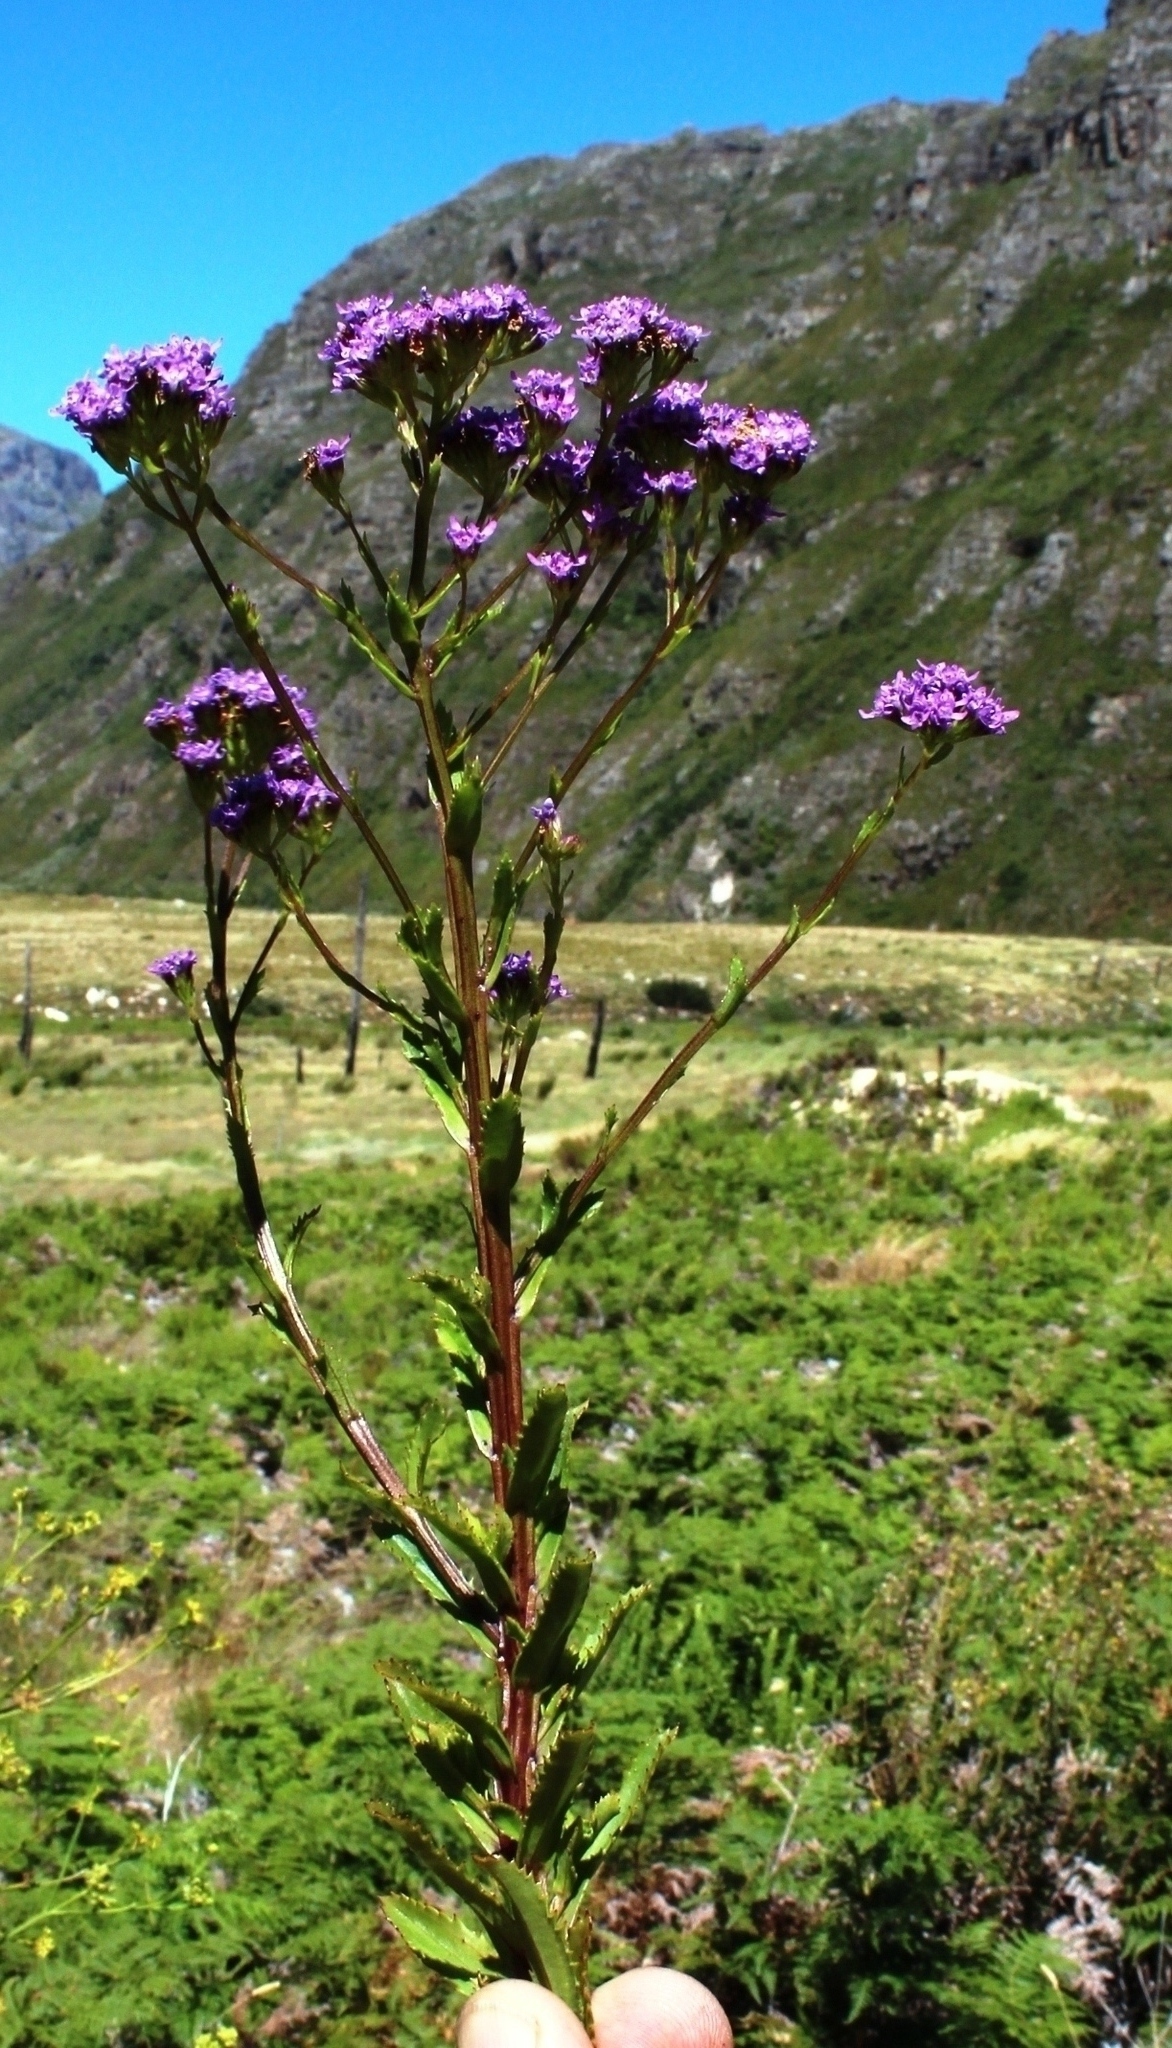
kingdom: Plantae
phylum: Tracheophyta
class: Magnoliopsida
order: Lamiales
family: Scrophulariaceae
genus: Pseudoselago
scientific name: Pseudoselago verbenacea
